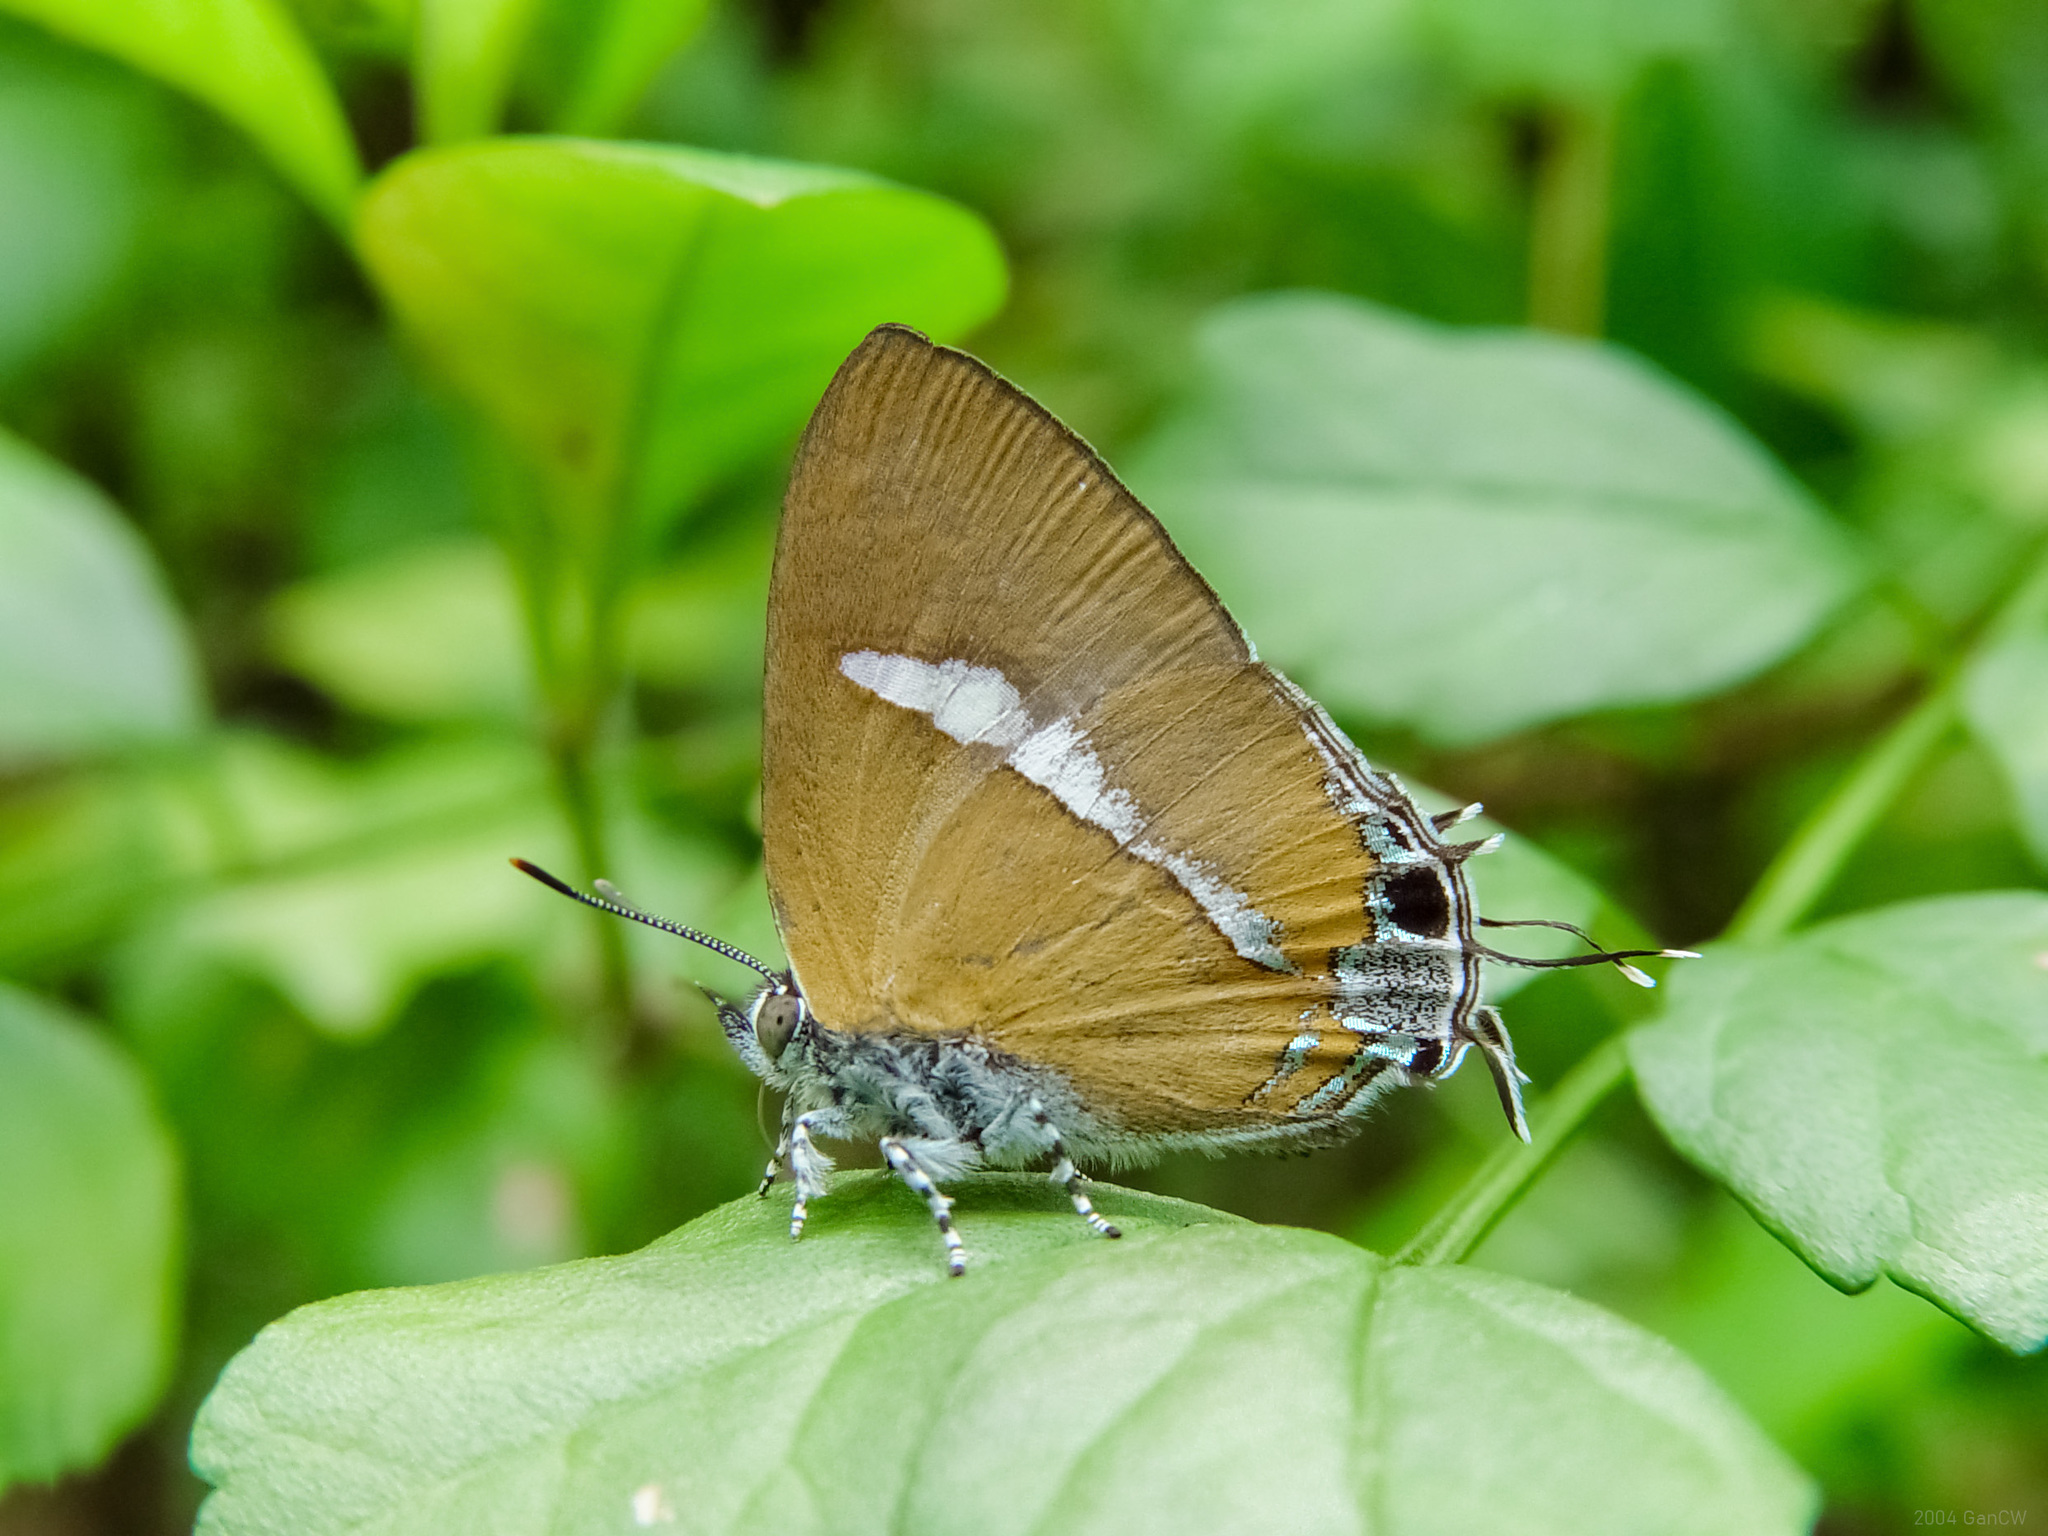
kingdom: Animalia
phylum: Arthropoda
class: Insecta
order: Lepidoptera
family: Lycaenidae
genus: Horaga
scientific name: Horaga syrinx
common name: Ambon onyx
